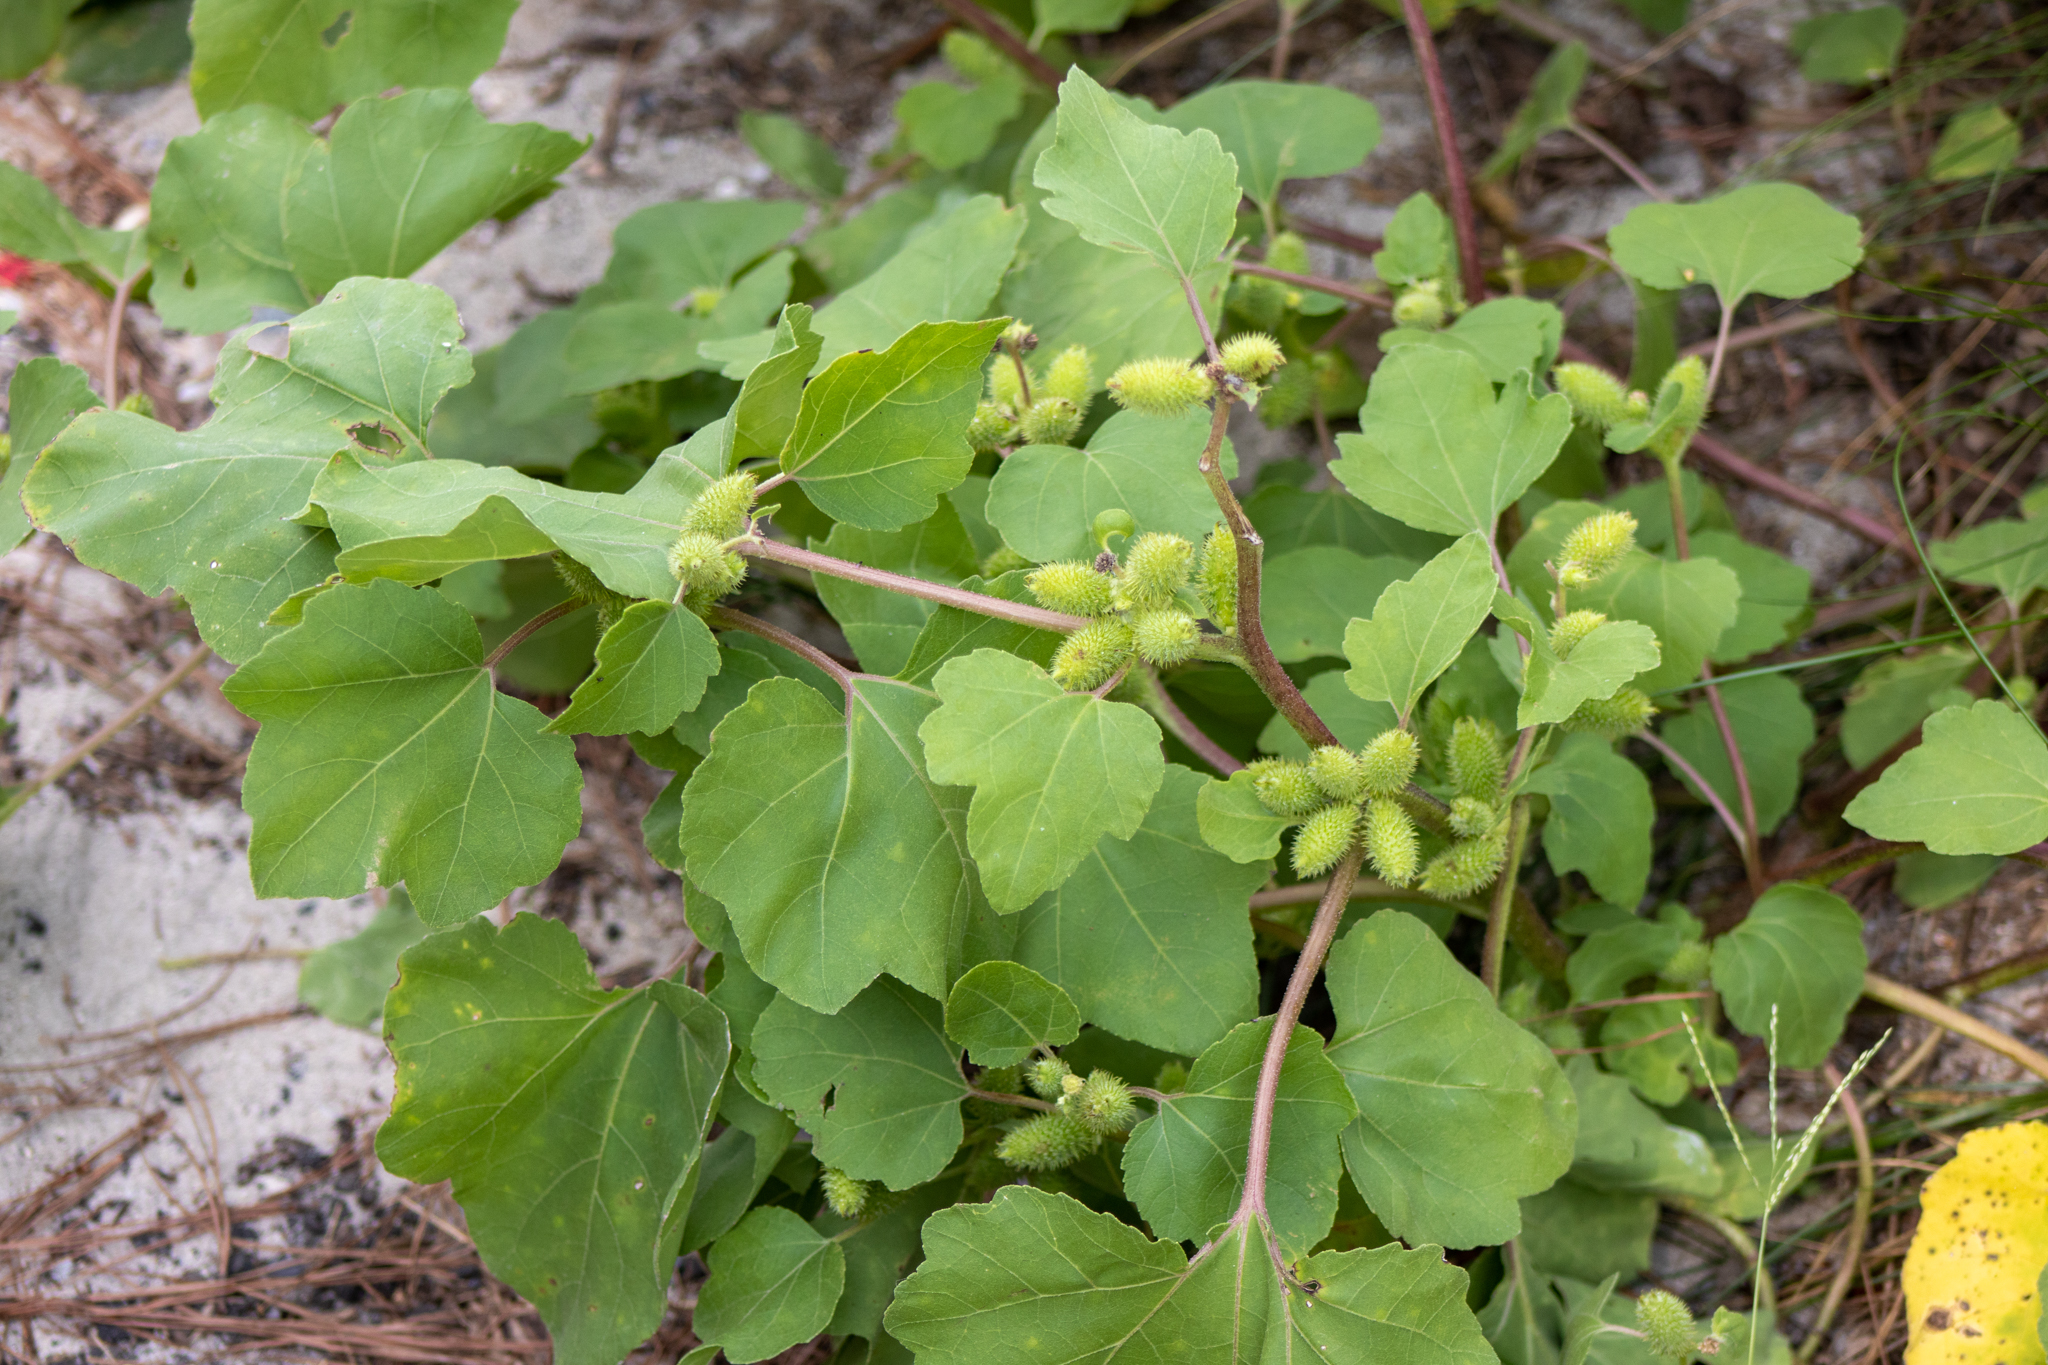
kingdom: Plantae
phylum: Tracheophyta
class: Magnoliopsida
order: Asterales
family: Asteraceae
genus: Xanthium
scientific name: Xanthium strumarium
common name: Rough cocklebur
